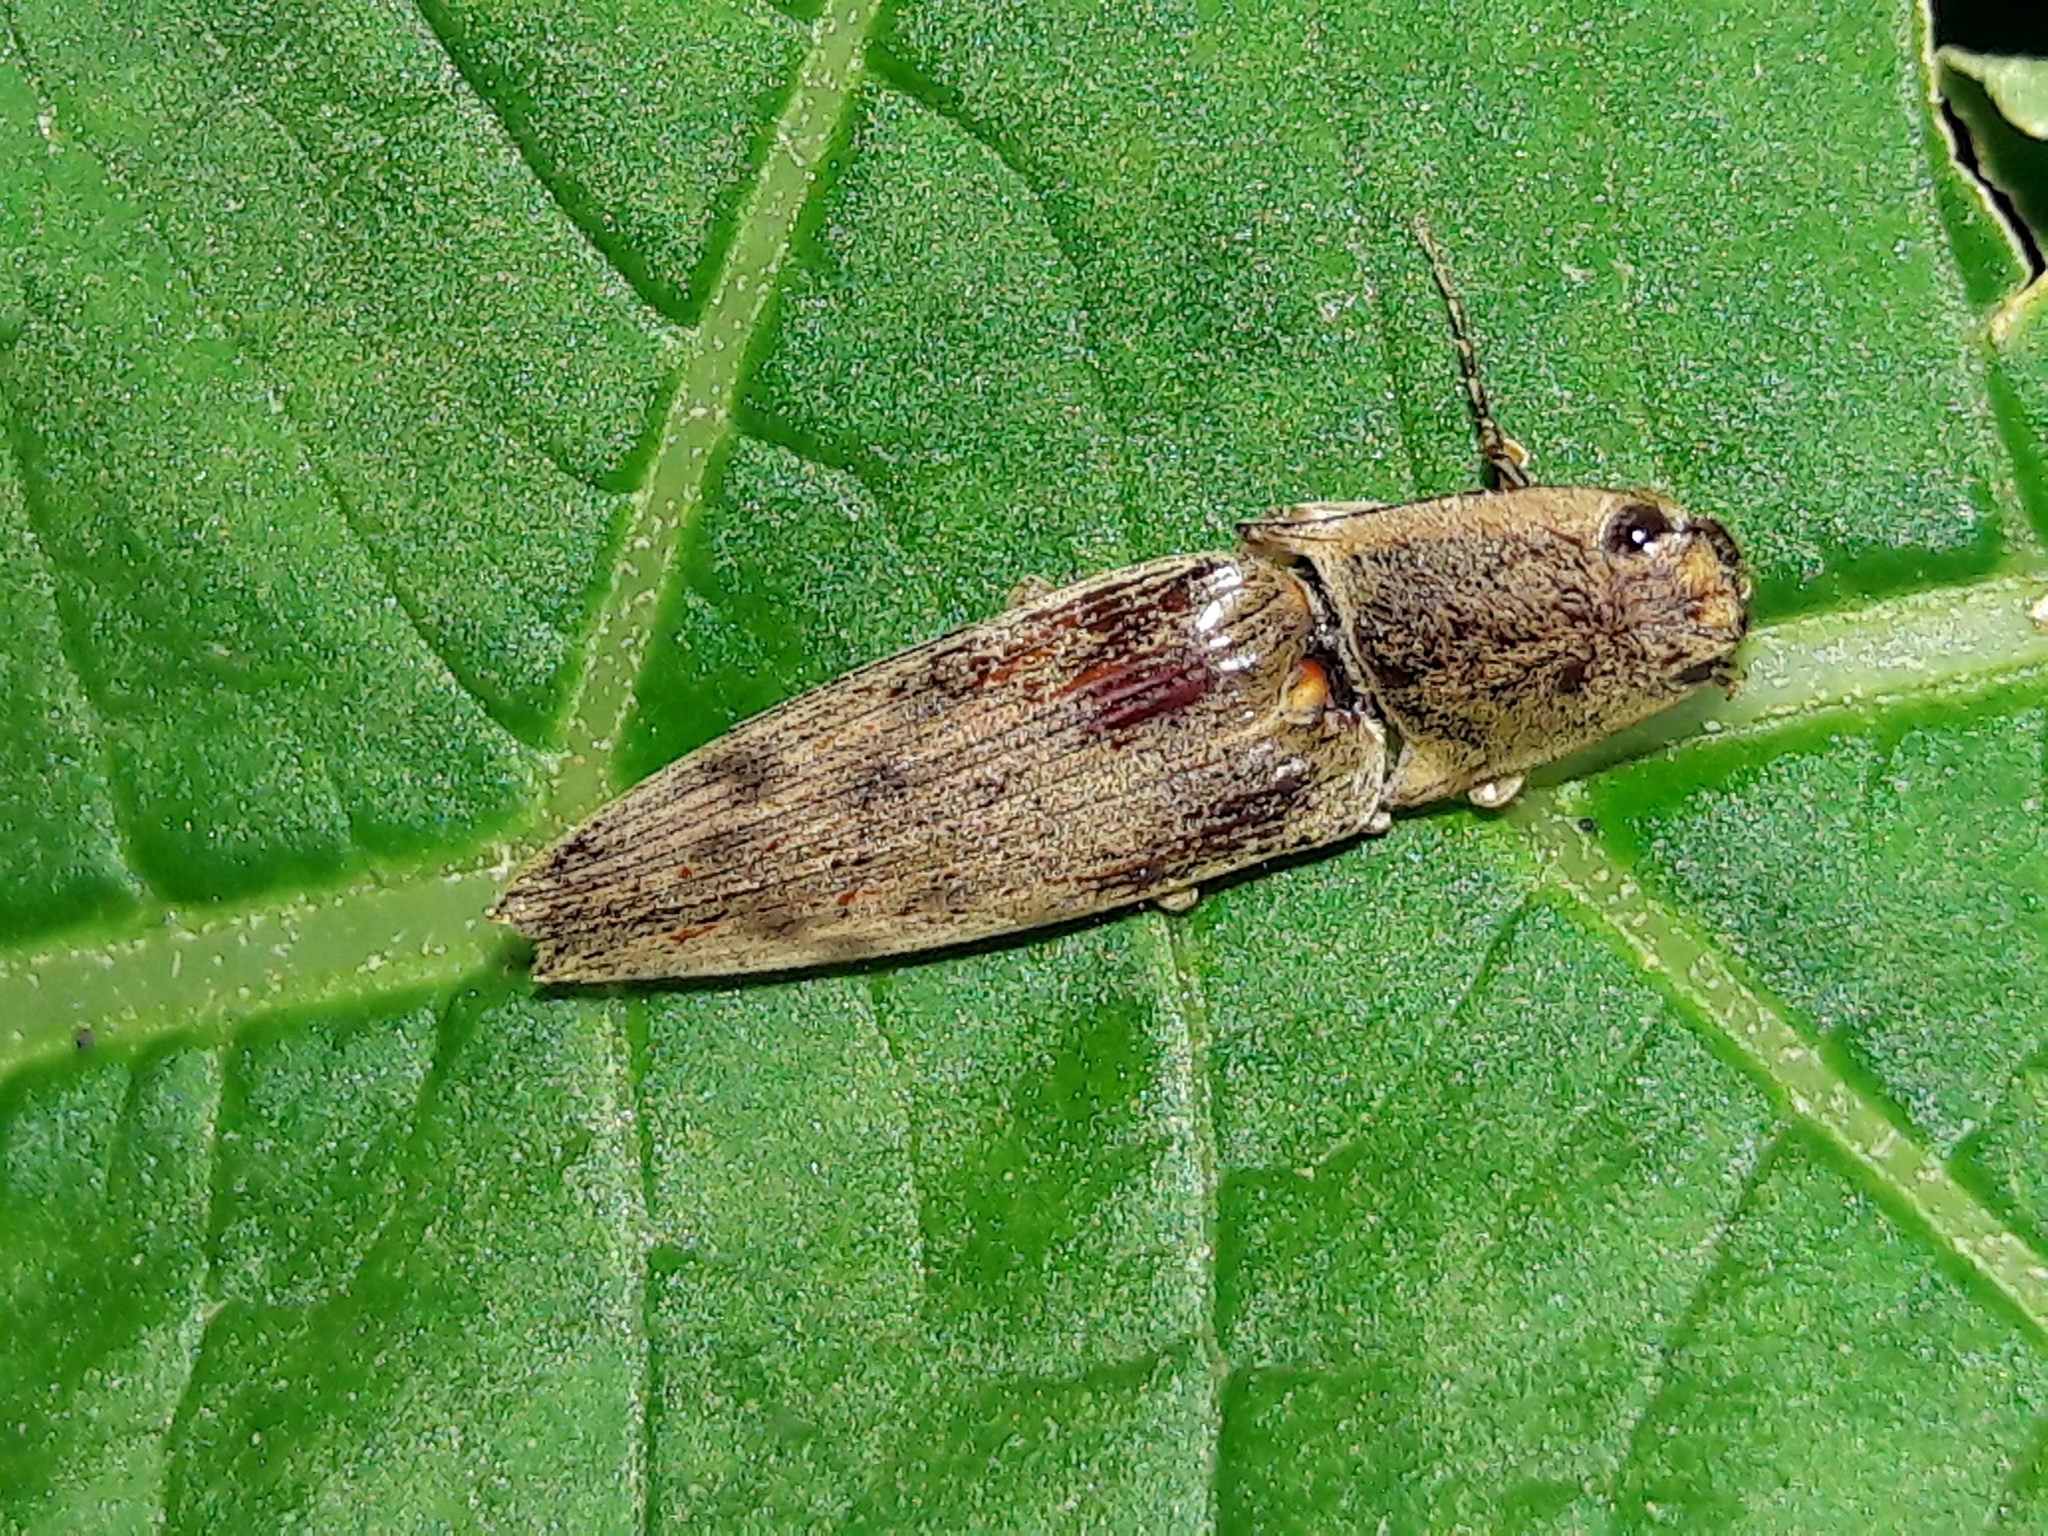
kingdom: Animalia
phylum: Arthropoda
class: Insecta
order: Coleoptera
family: Elateridae
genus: Monocrepidius
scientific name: Monocrepidius leucophaeatus
